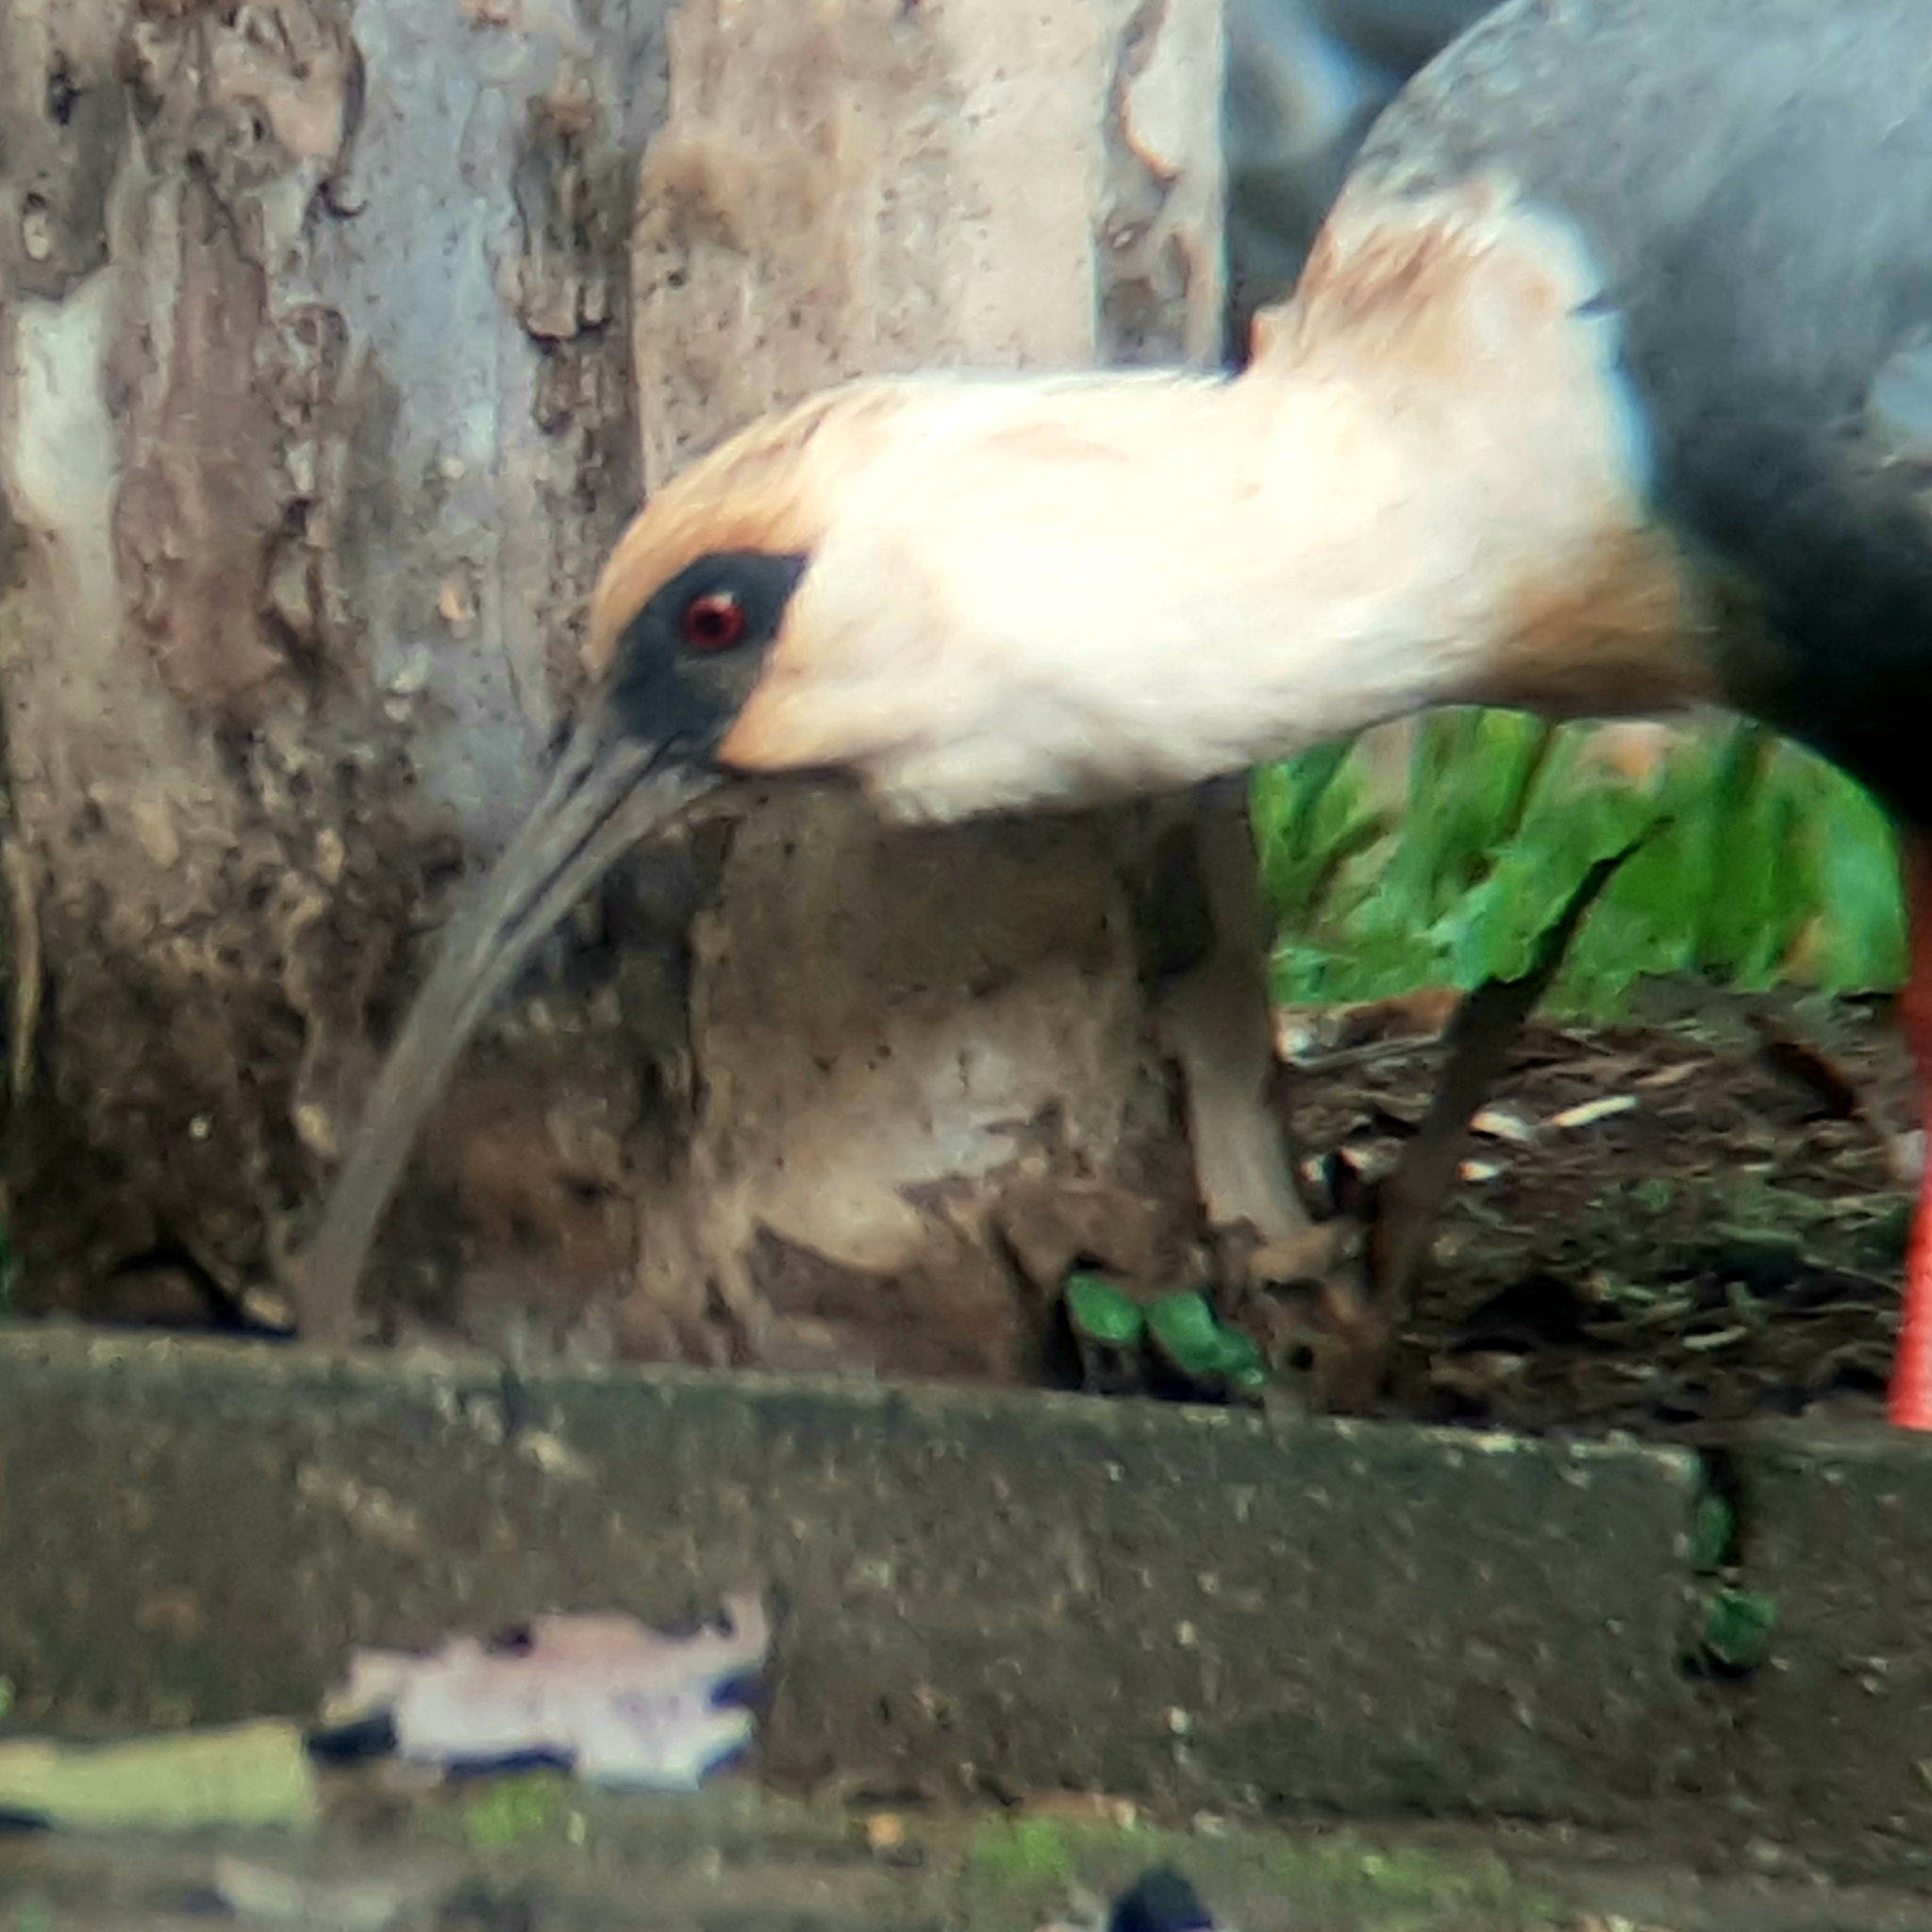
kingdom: Animalia
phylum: Chordata
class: Aves
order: Pelecaniformes
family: Threskiornithidae
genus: Theristicus
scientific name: Theristicus caudatus
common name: Buff-necked ibis
